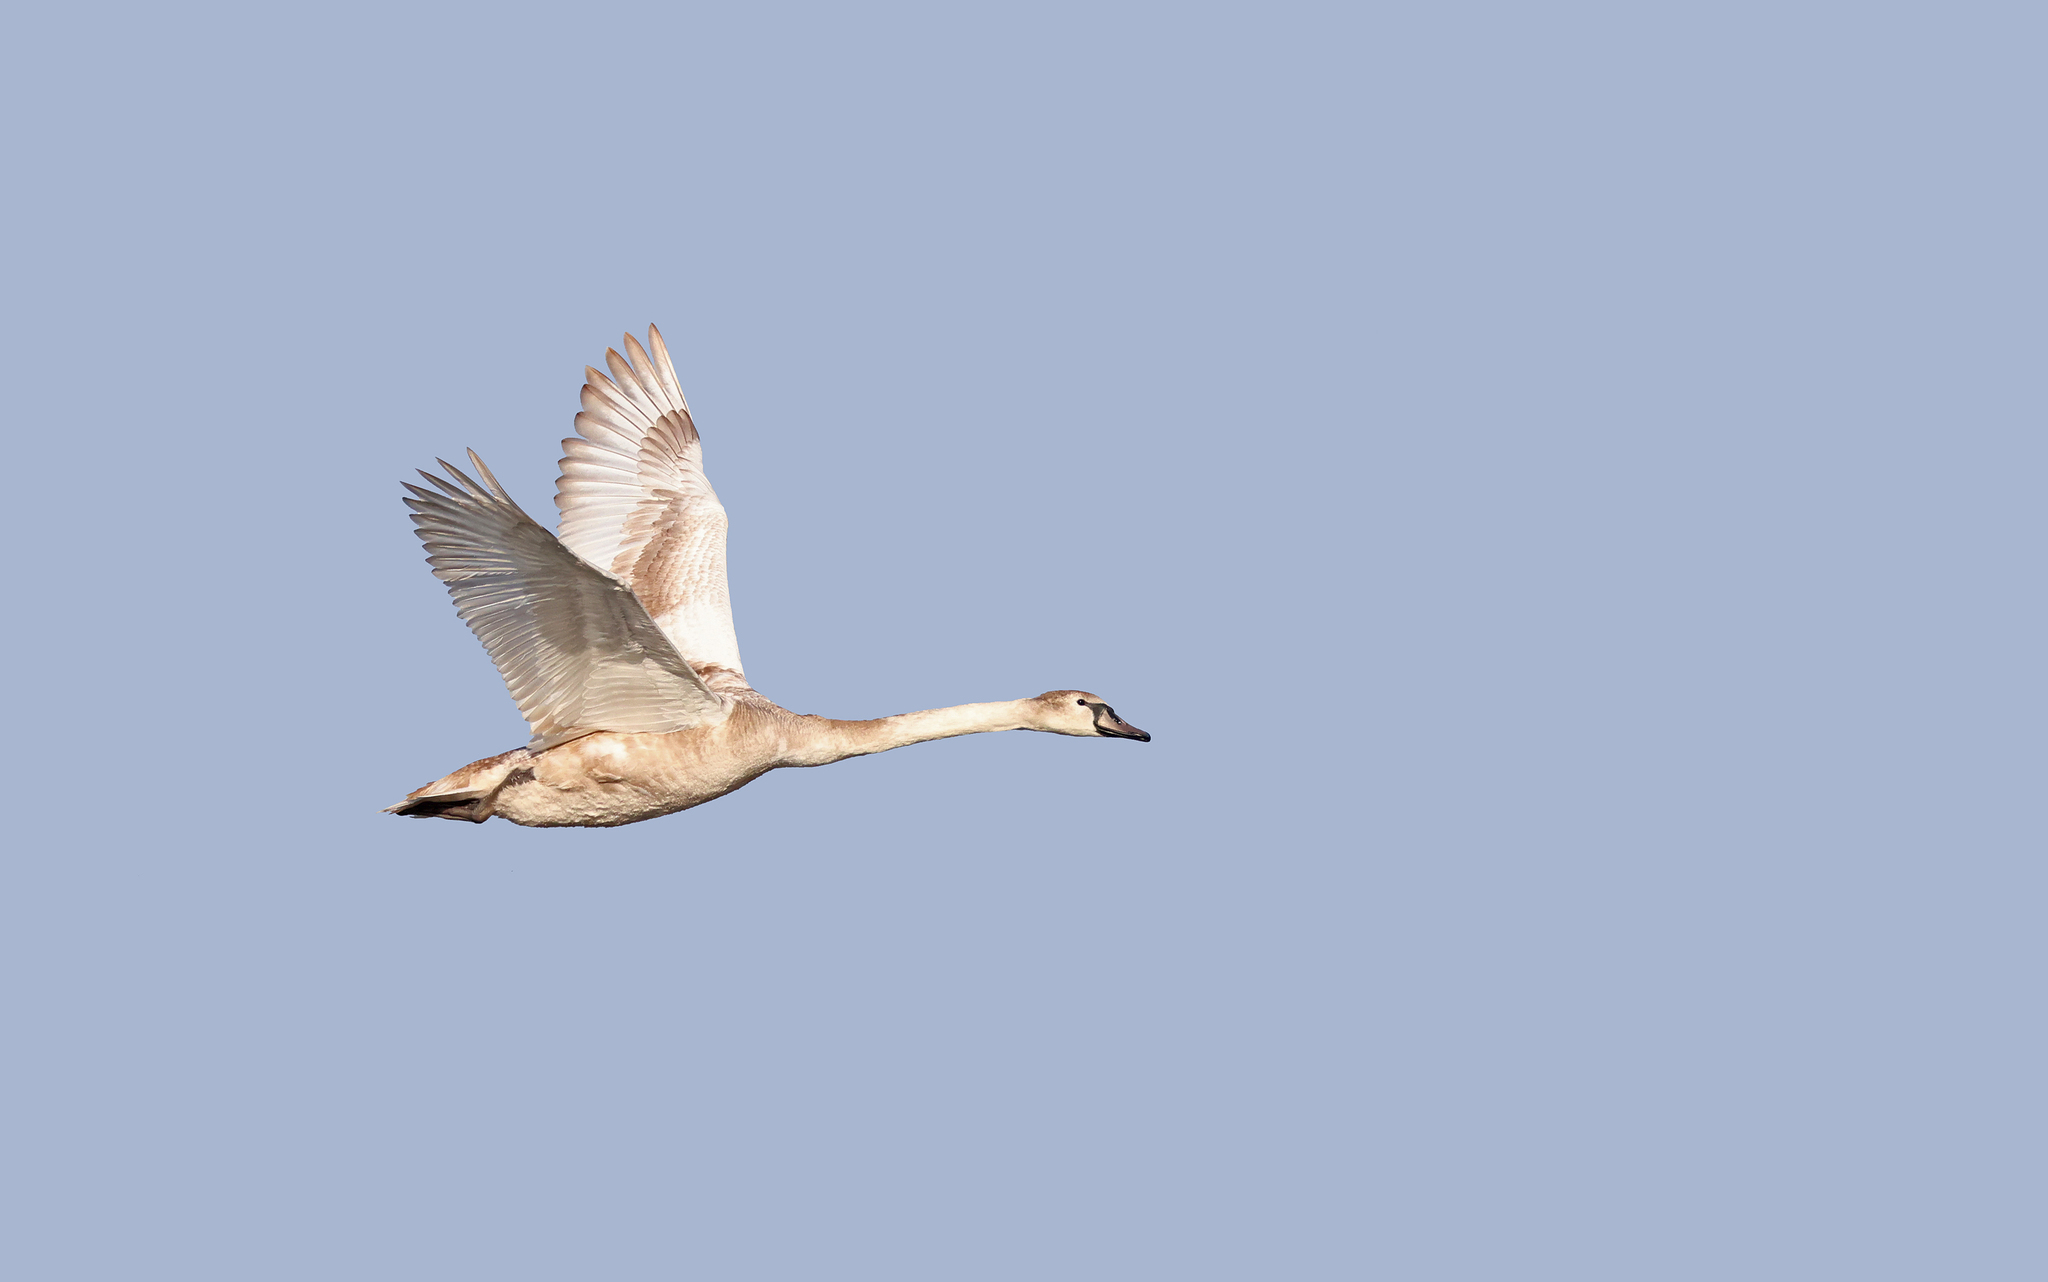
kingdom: Animalia
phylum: Chordata
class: Aves
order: Anseriformes
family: Anatidae
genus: Cygnus
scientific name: Cygnus olor
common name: Mute swan
